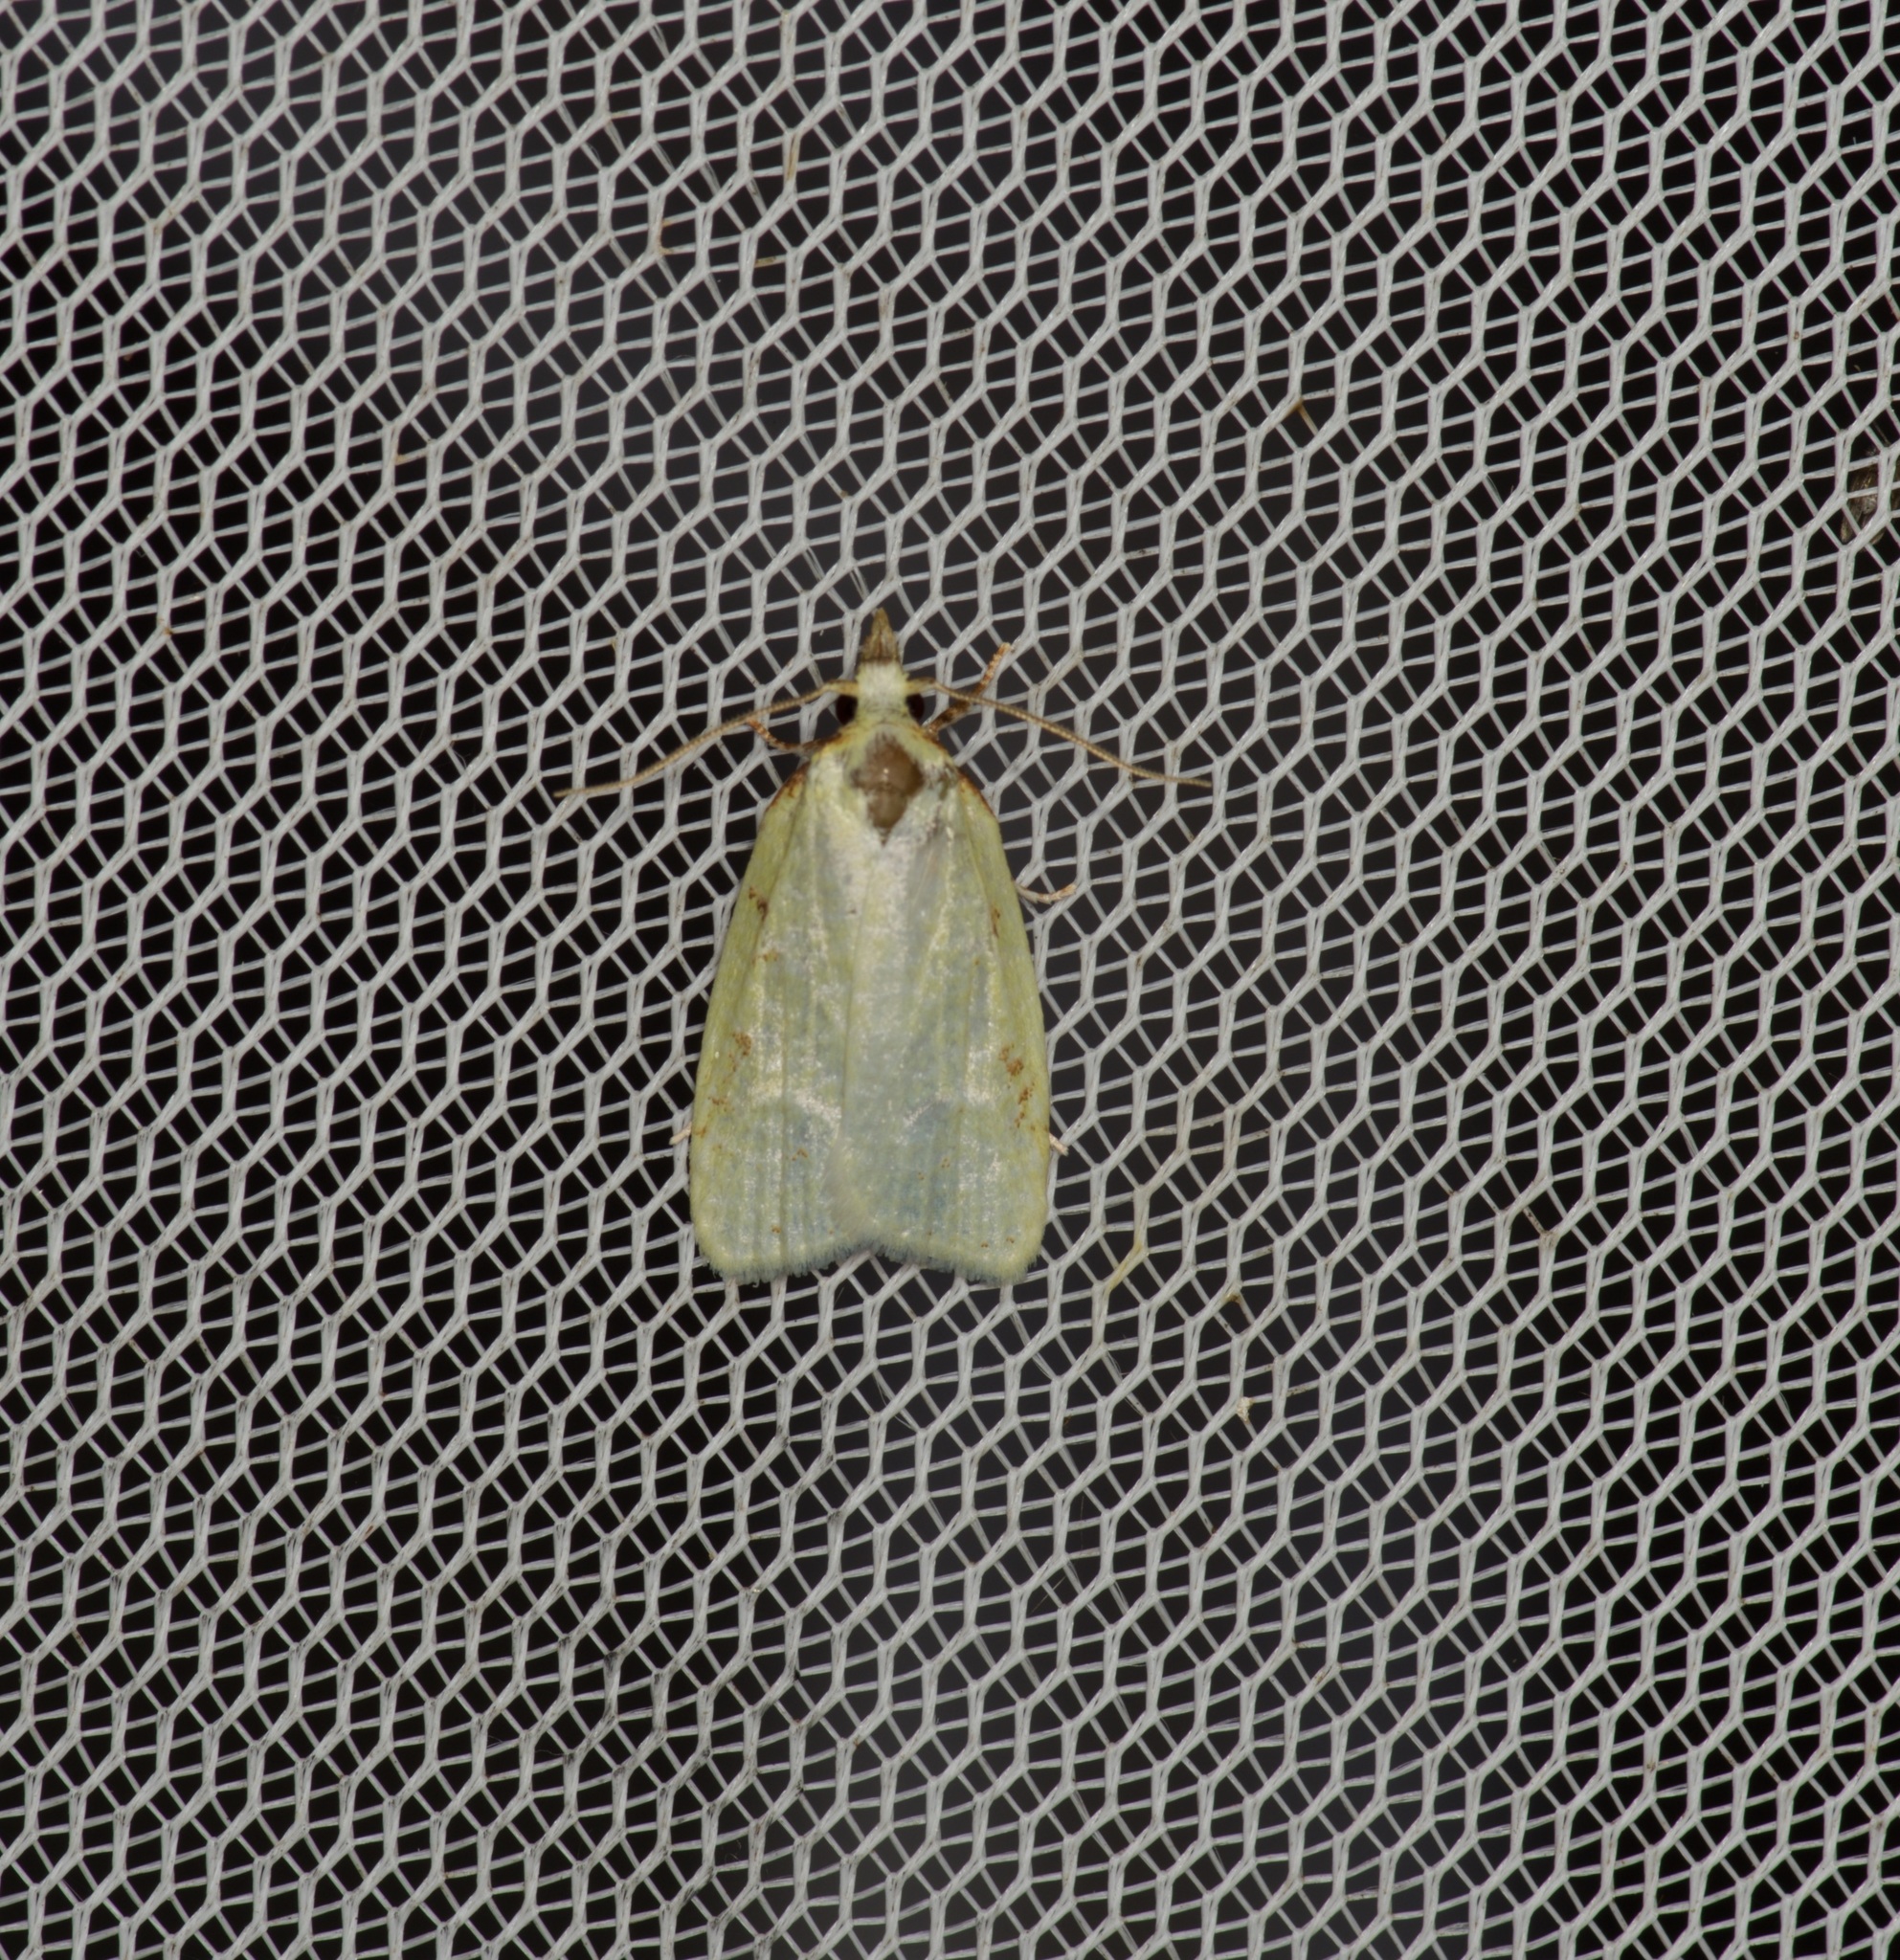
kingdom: Animalia
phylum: Arthropoda
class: Insecta
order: Lepidoptera
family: Tortricidae
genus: Cenopis
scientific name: Cenopis pettitana
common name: Maple-basswood leafroller moth
